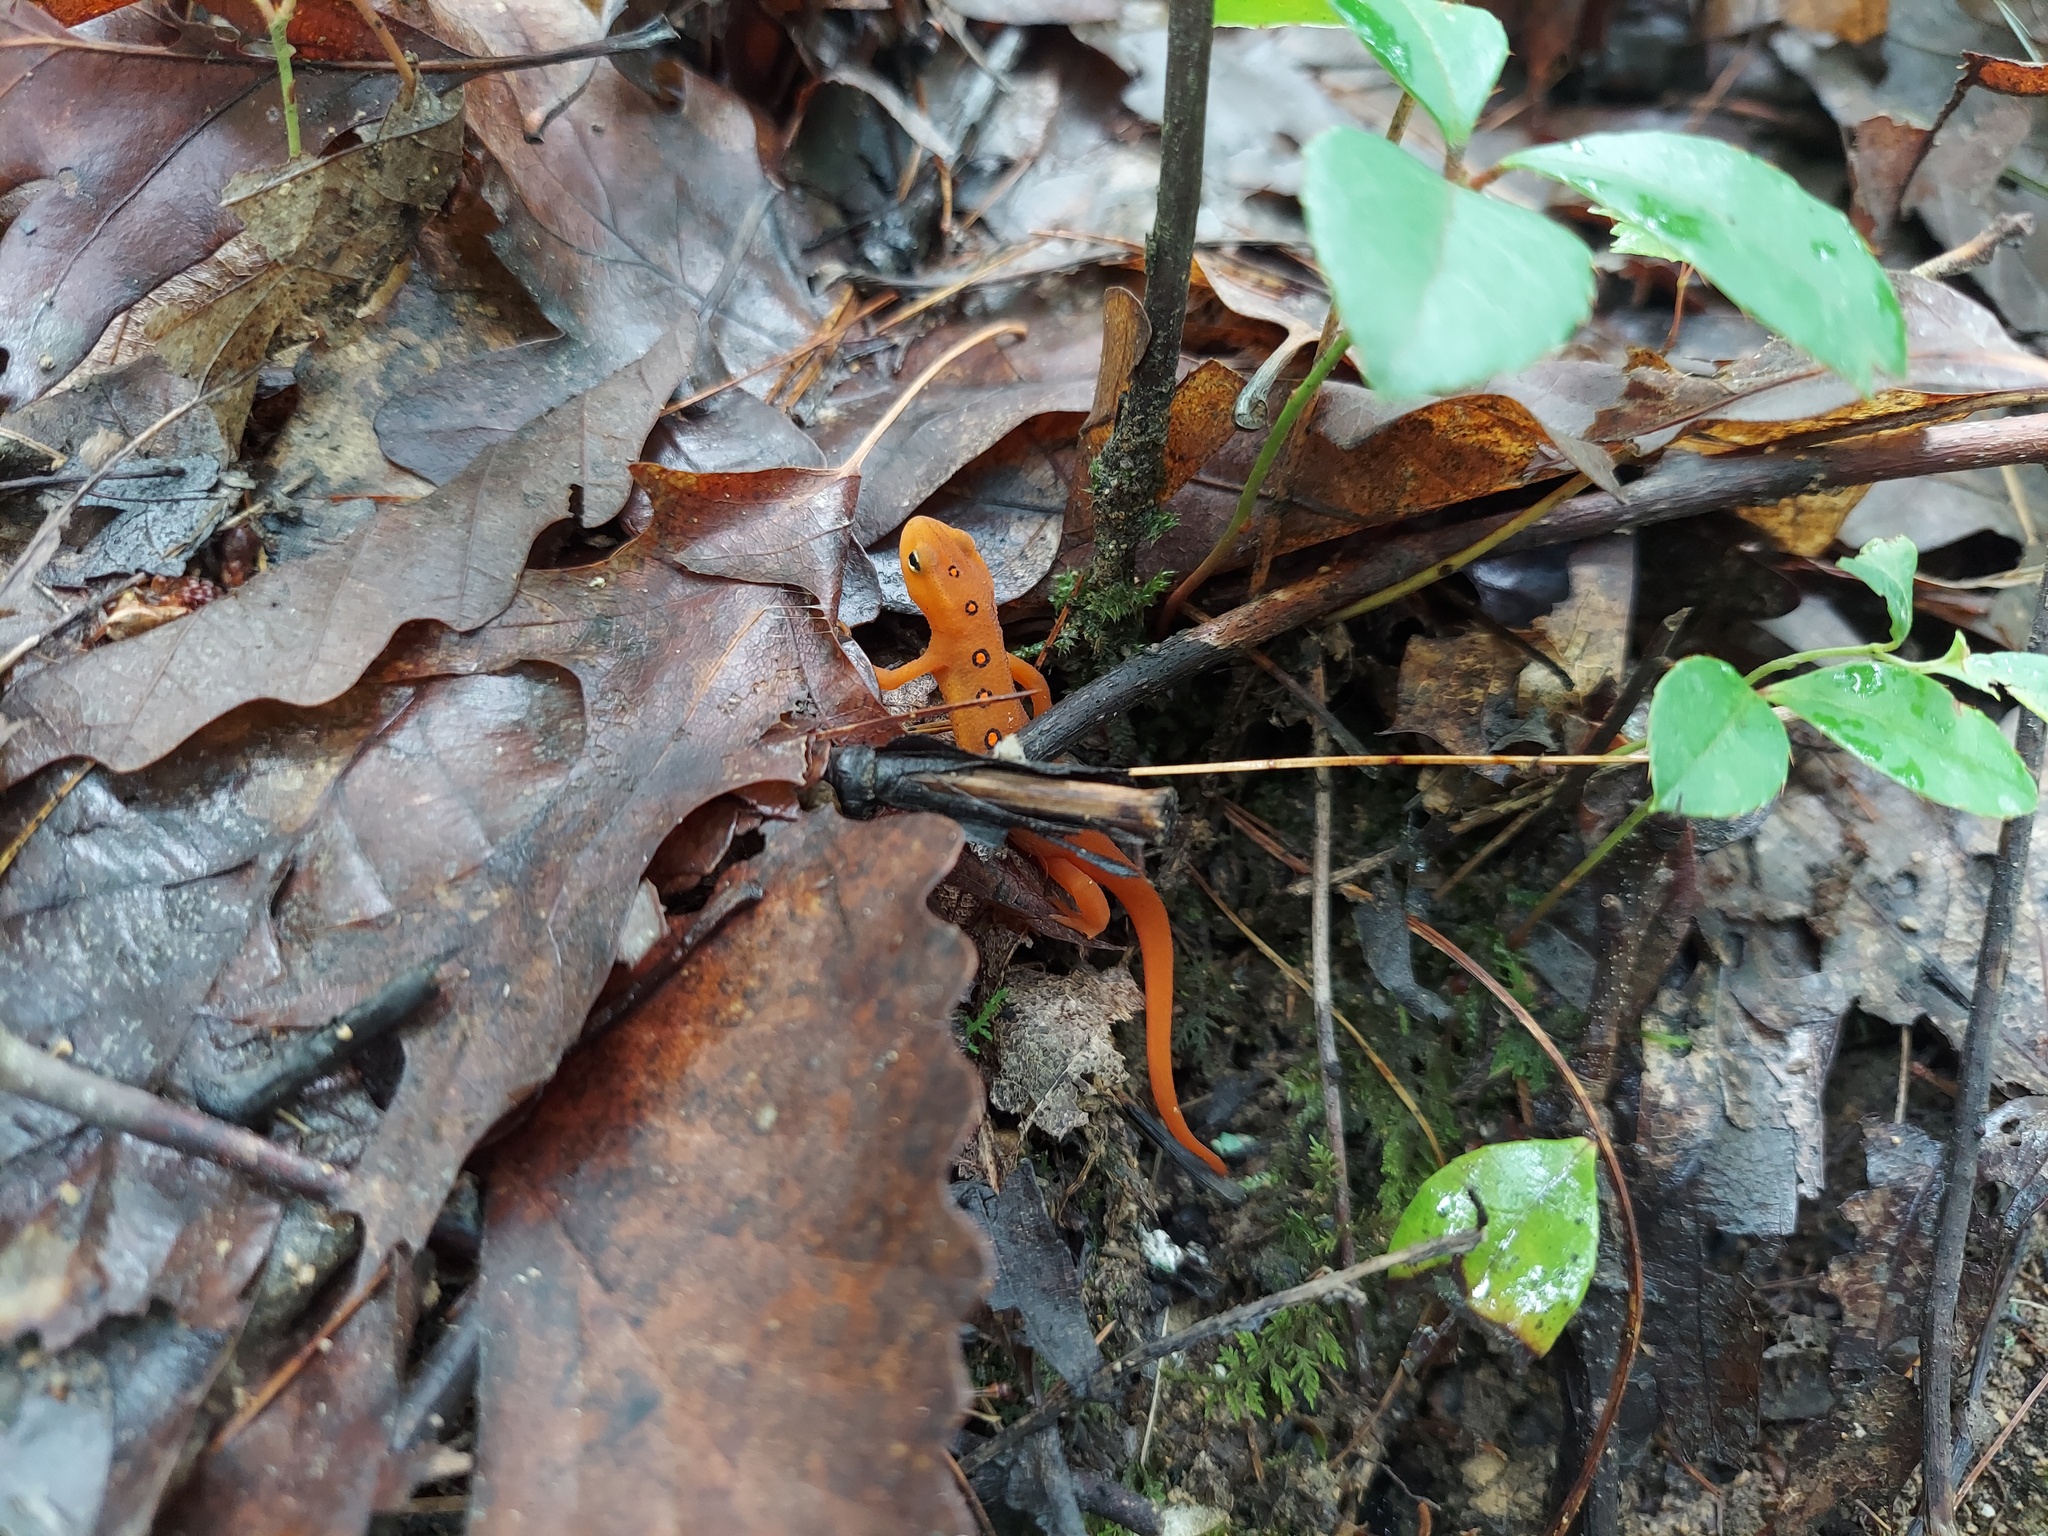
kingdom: Animalia
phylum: Chordata
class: Amphibia
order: Caudata
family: Salamandridae
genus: Notophthalmus
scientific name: Notophthalmus viridescens
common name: Eastern newt
